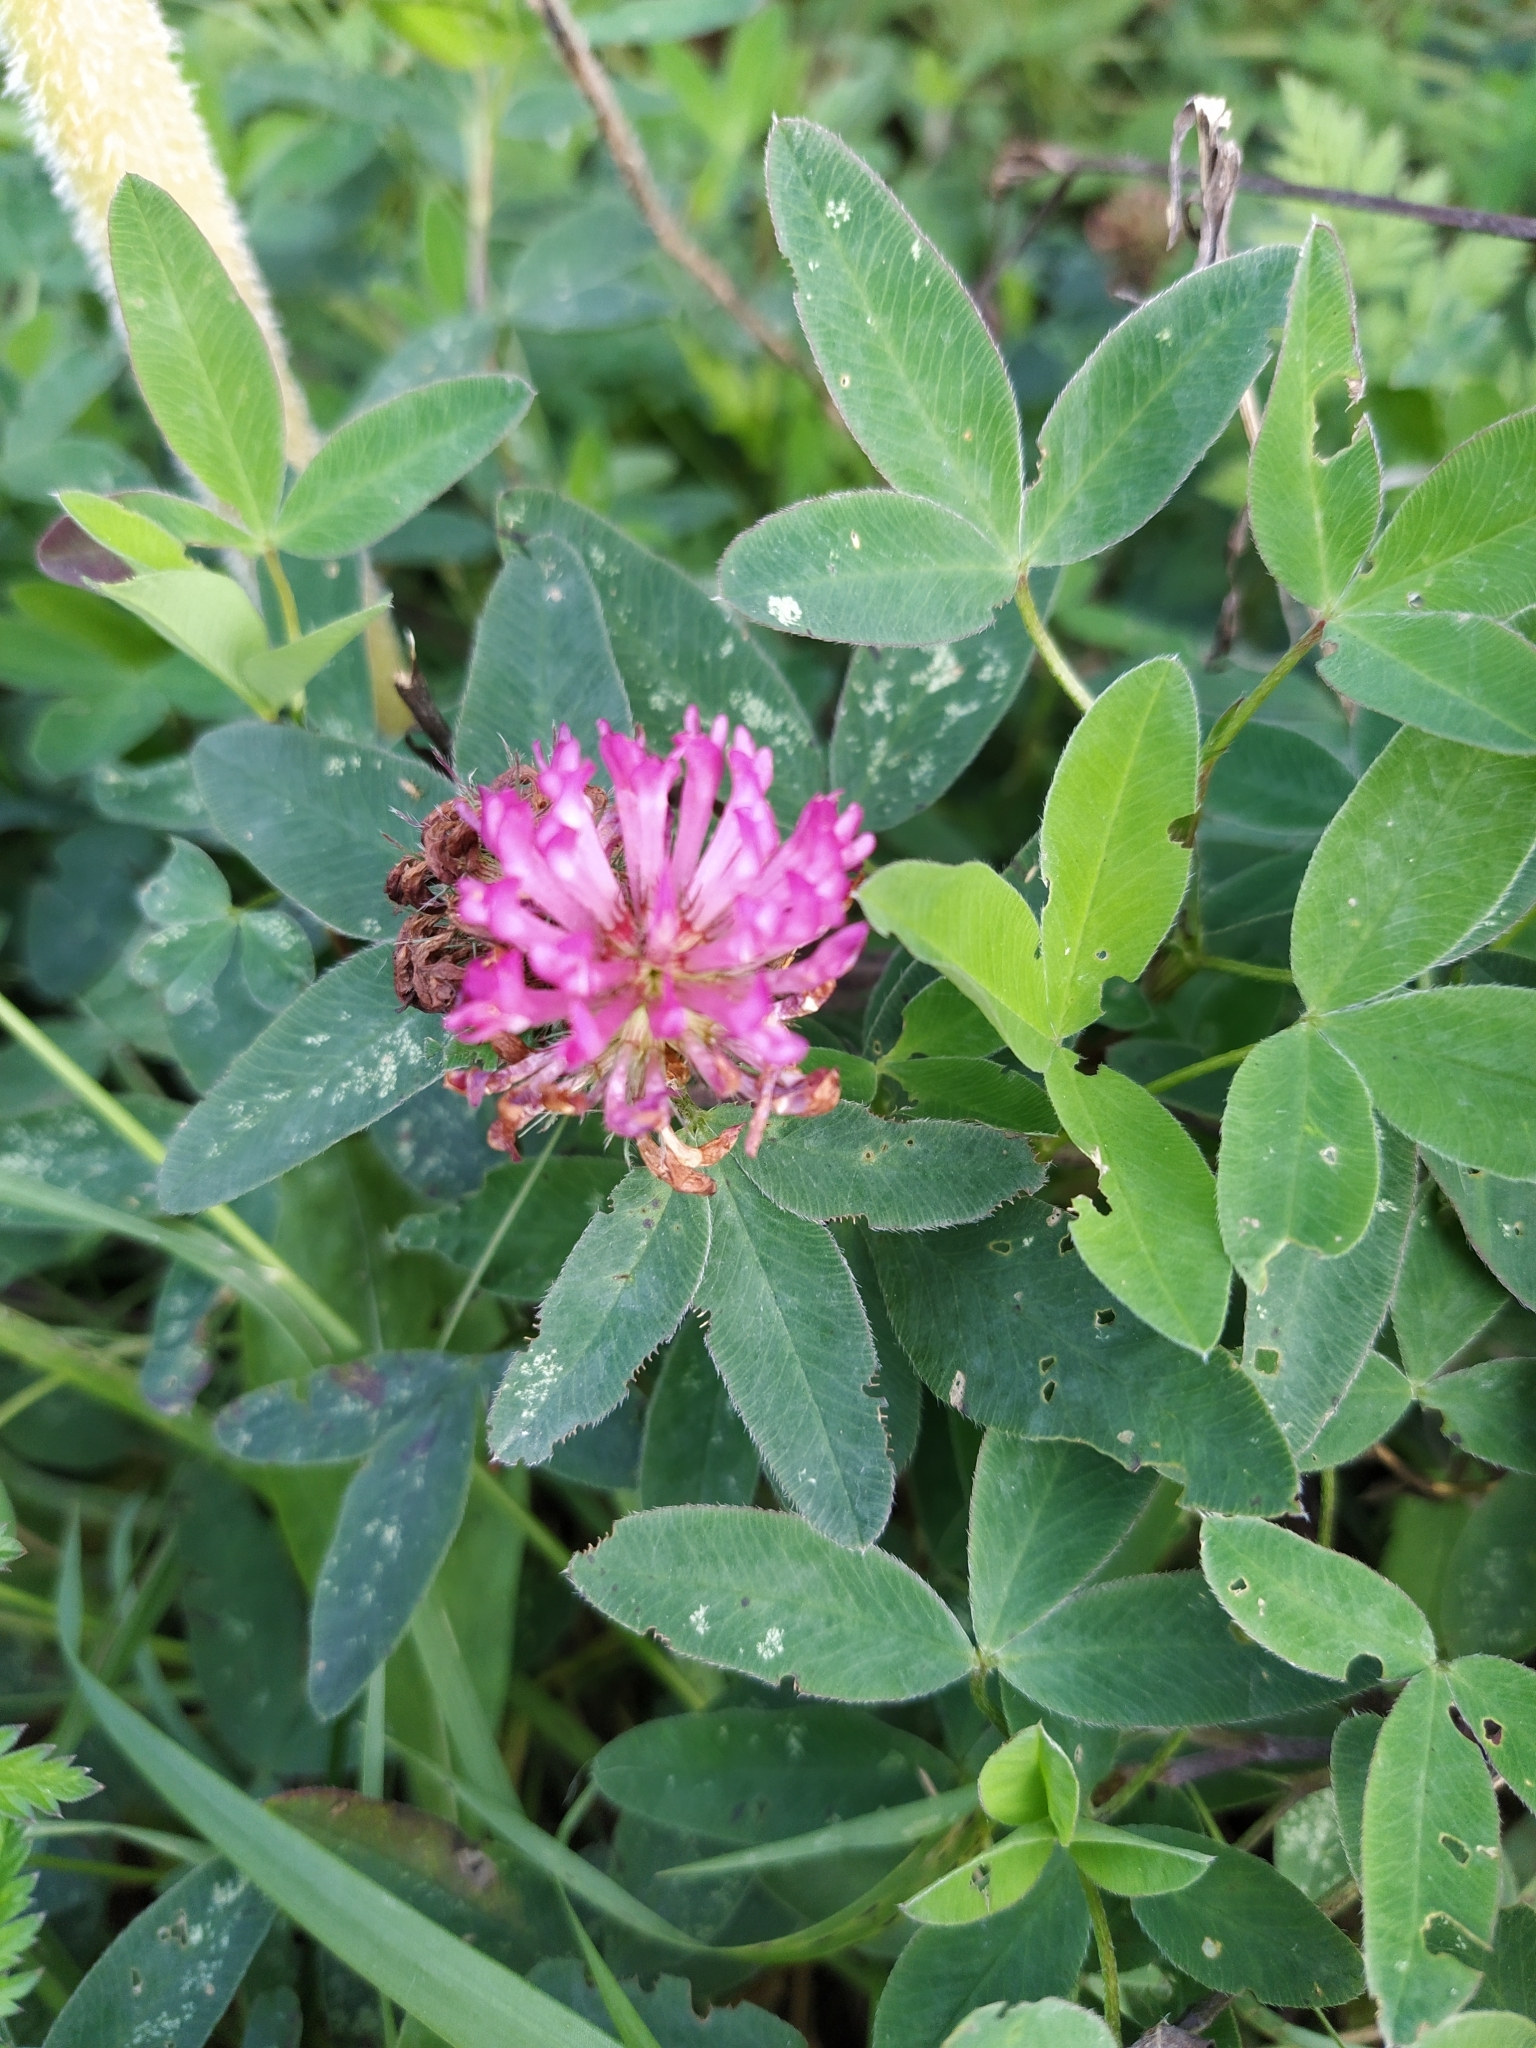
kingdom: Plantae
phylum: Tracheophyta
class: Magnoliopsida
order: Fabales
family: Fabaceae
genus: Trifolium
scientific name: Trifolium medium
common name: Zigzag clover
